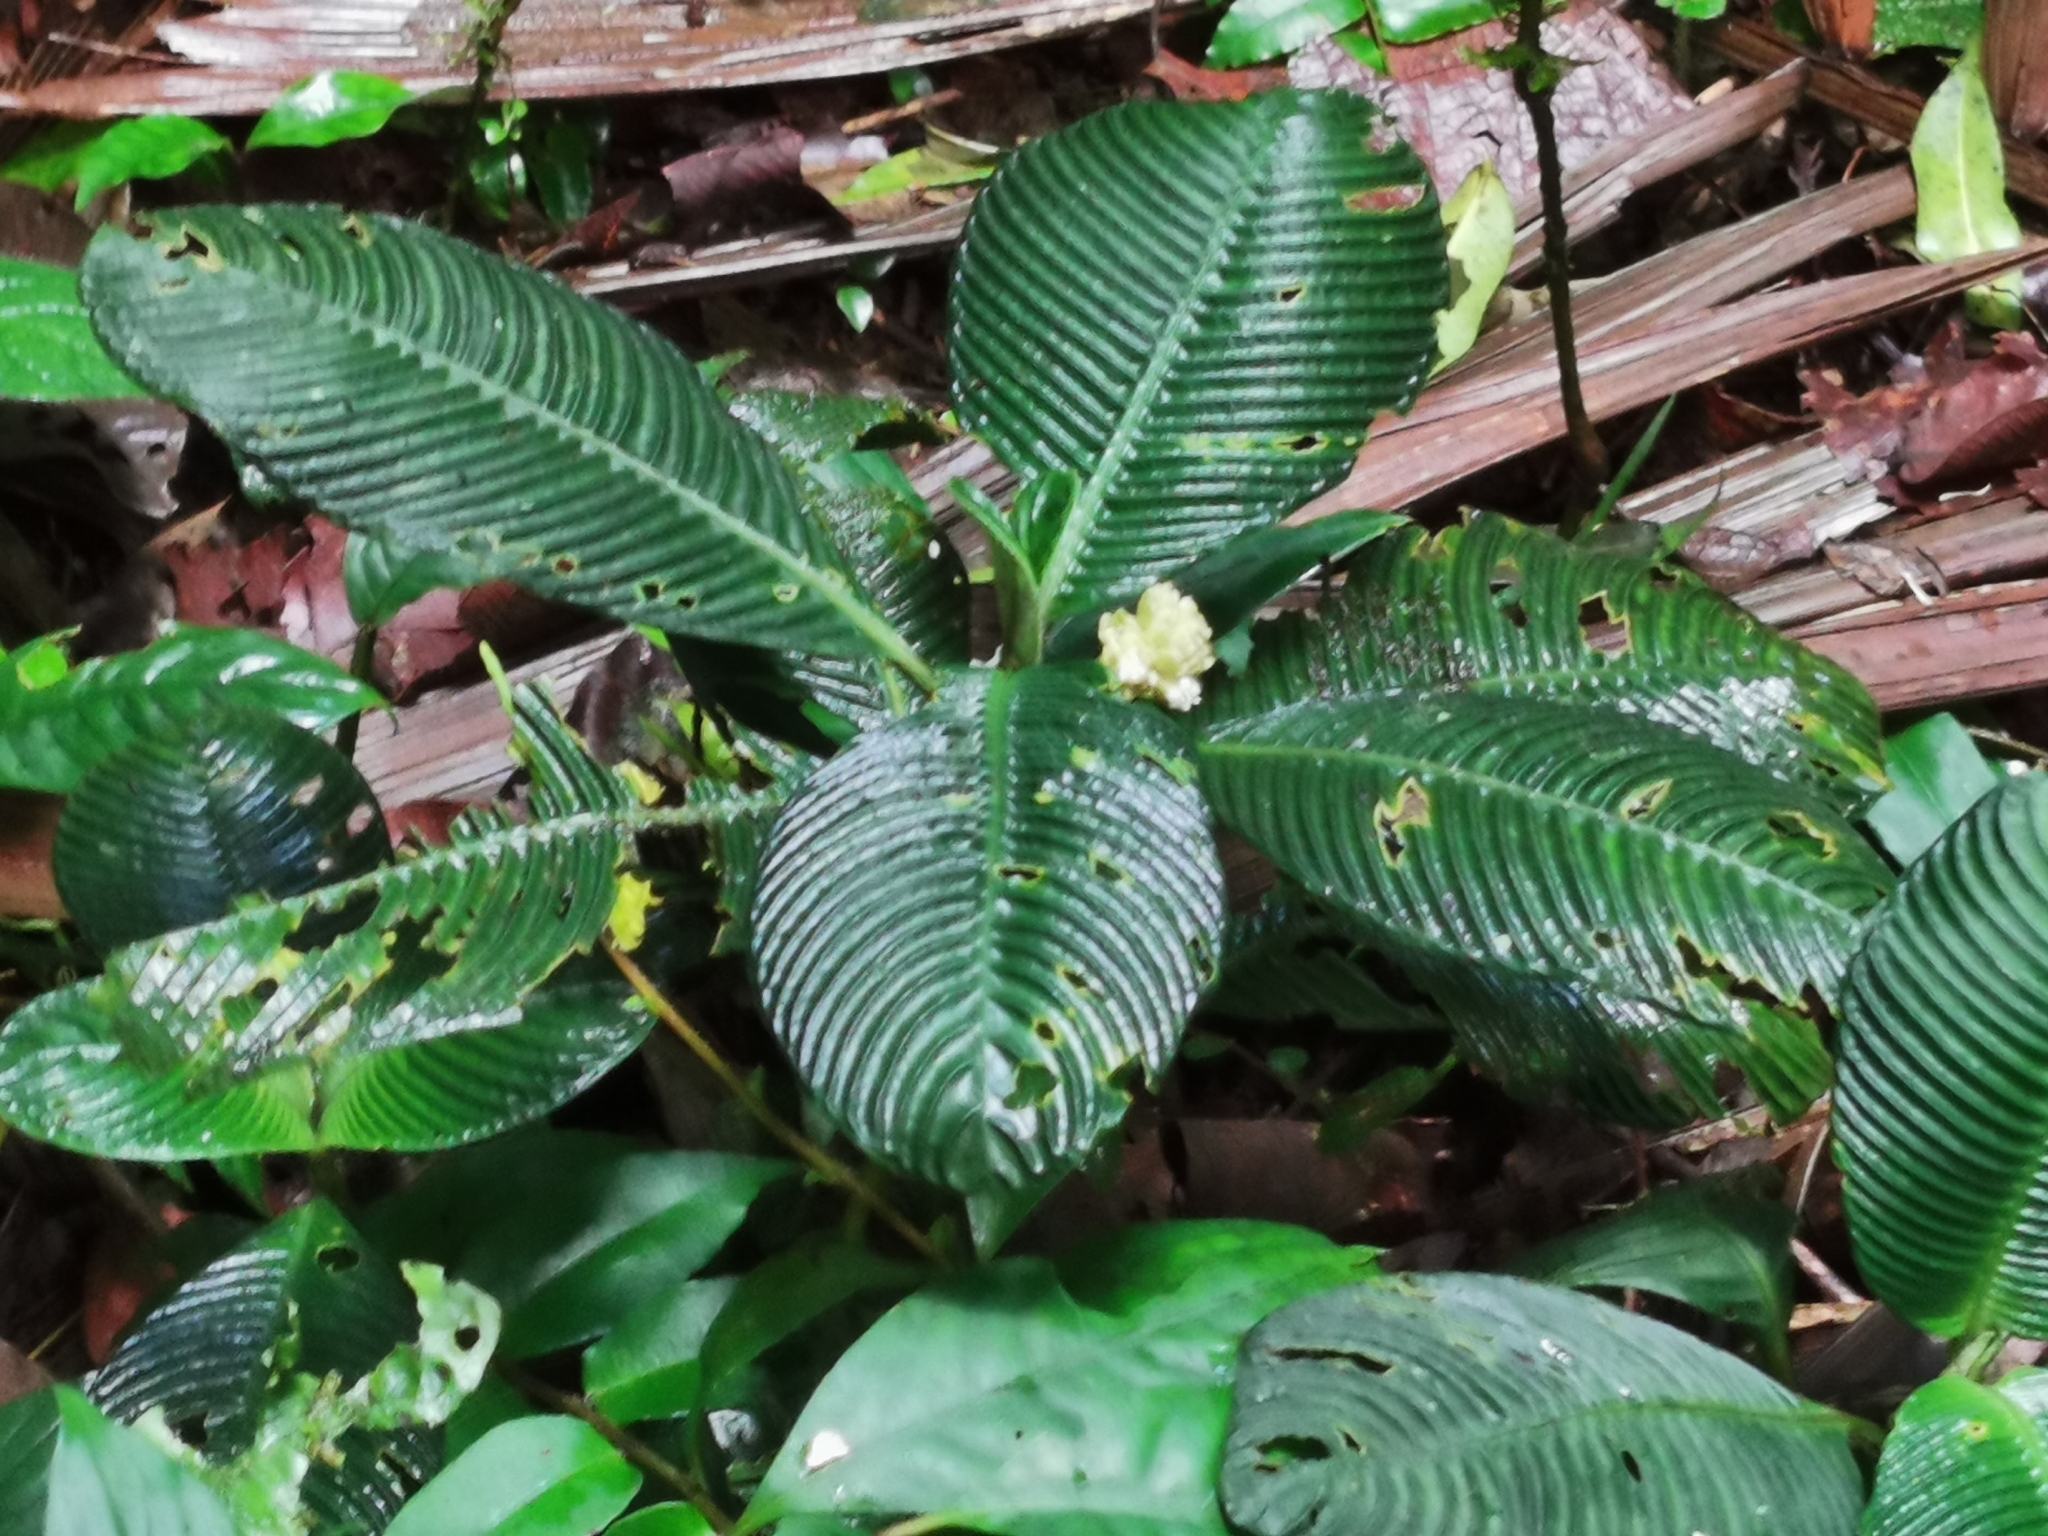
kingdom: Plantae
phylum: Tracheophyta
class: Magnoliopsida
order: Gentianales
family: Rubiaceae
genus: Notopleura
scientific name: Notopleura polyphlebia
